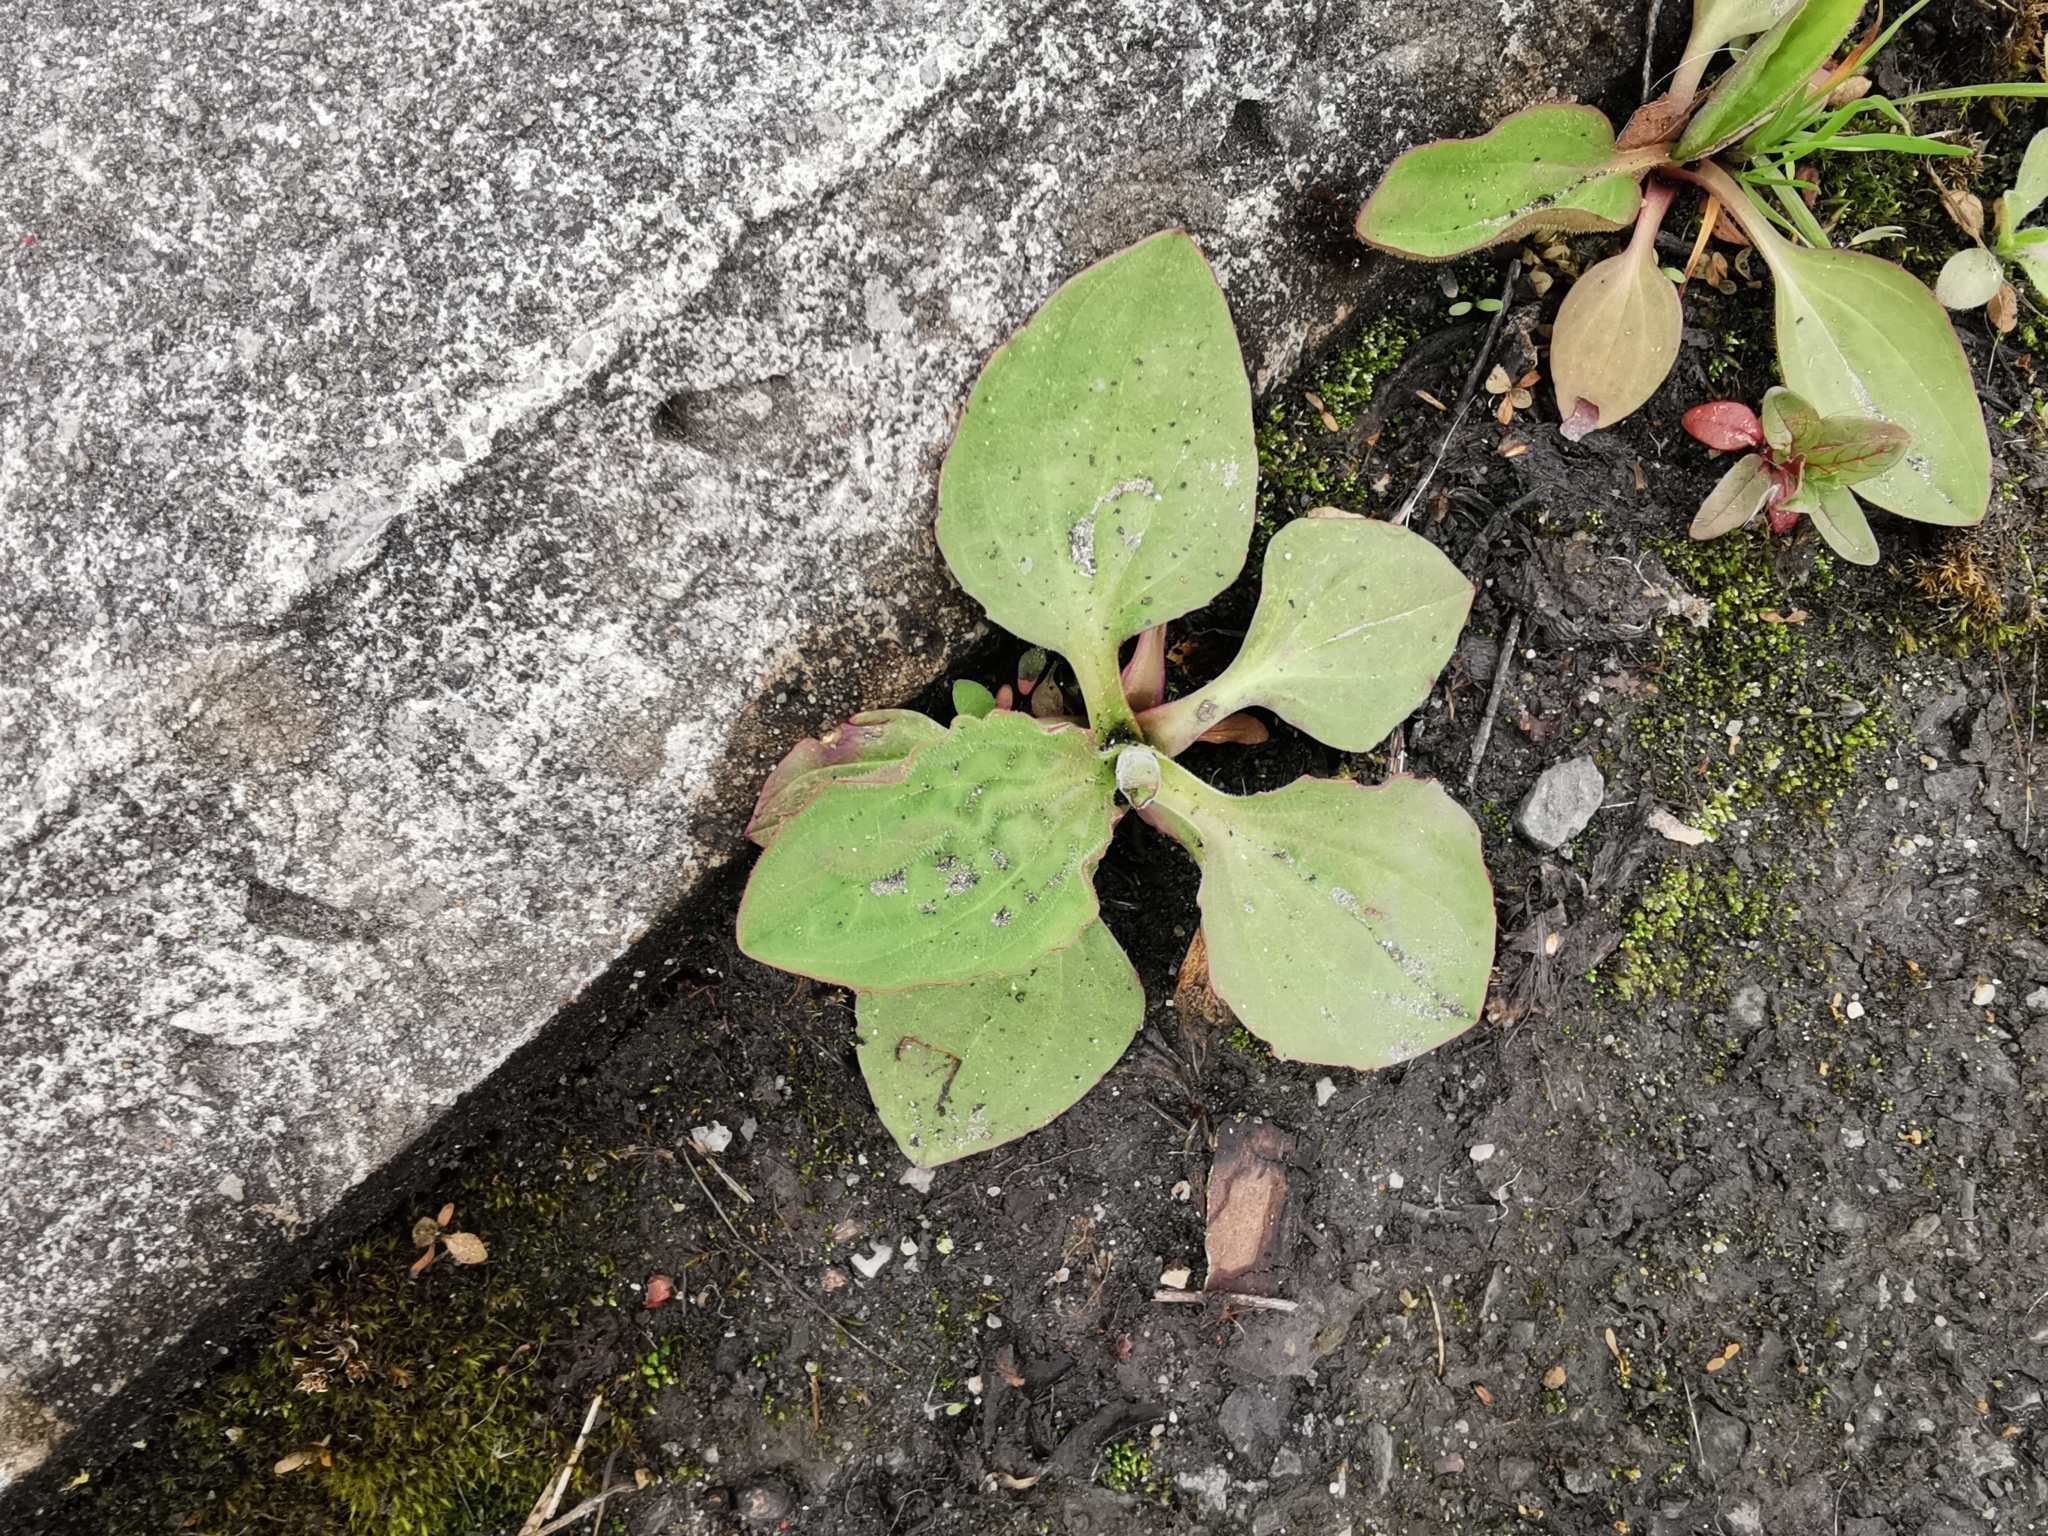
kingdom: Plantae
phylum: Tracheophyta
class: Magnoliopsida
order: Lamiales
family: Plantaginaceae
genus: Plantago
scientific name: Plantago major
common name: Common plantain
